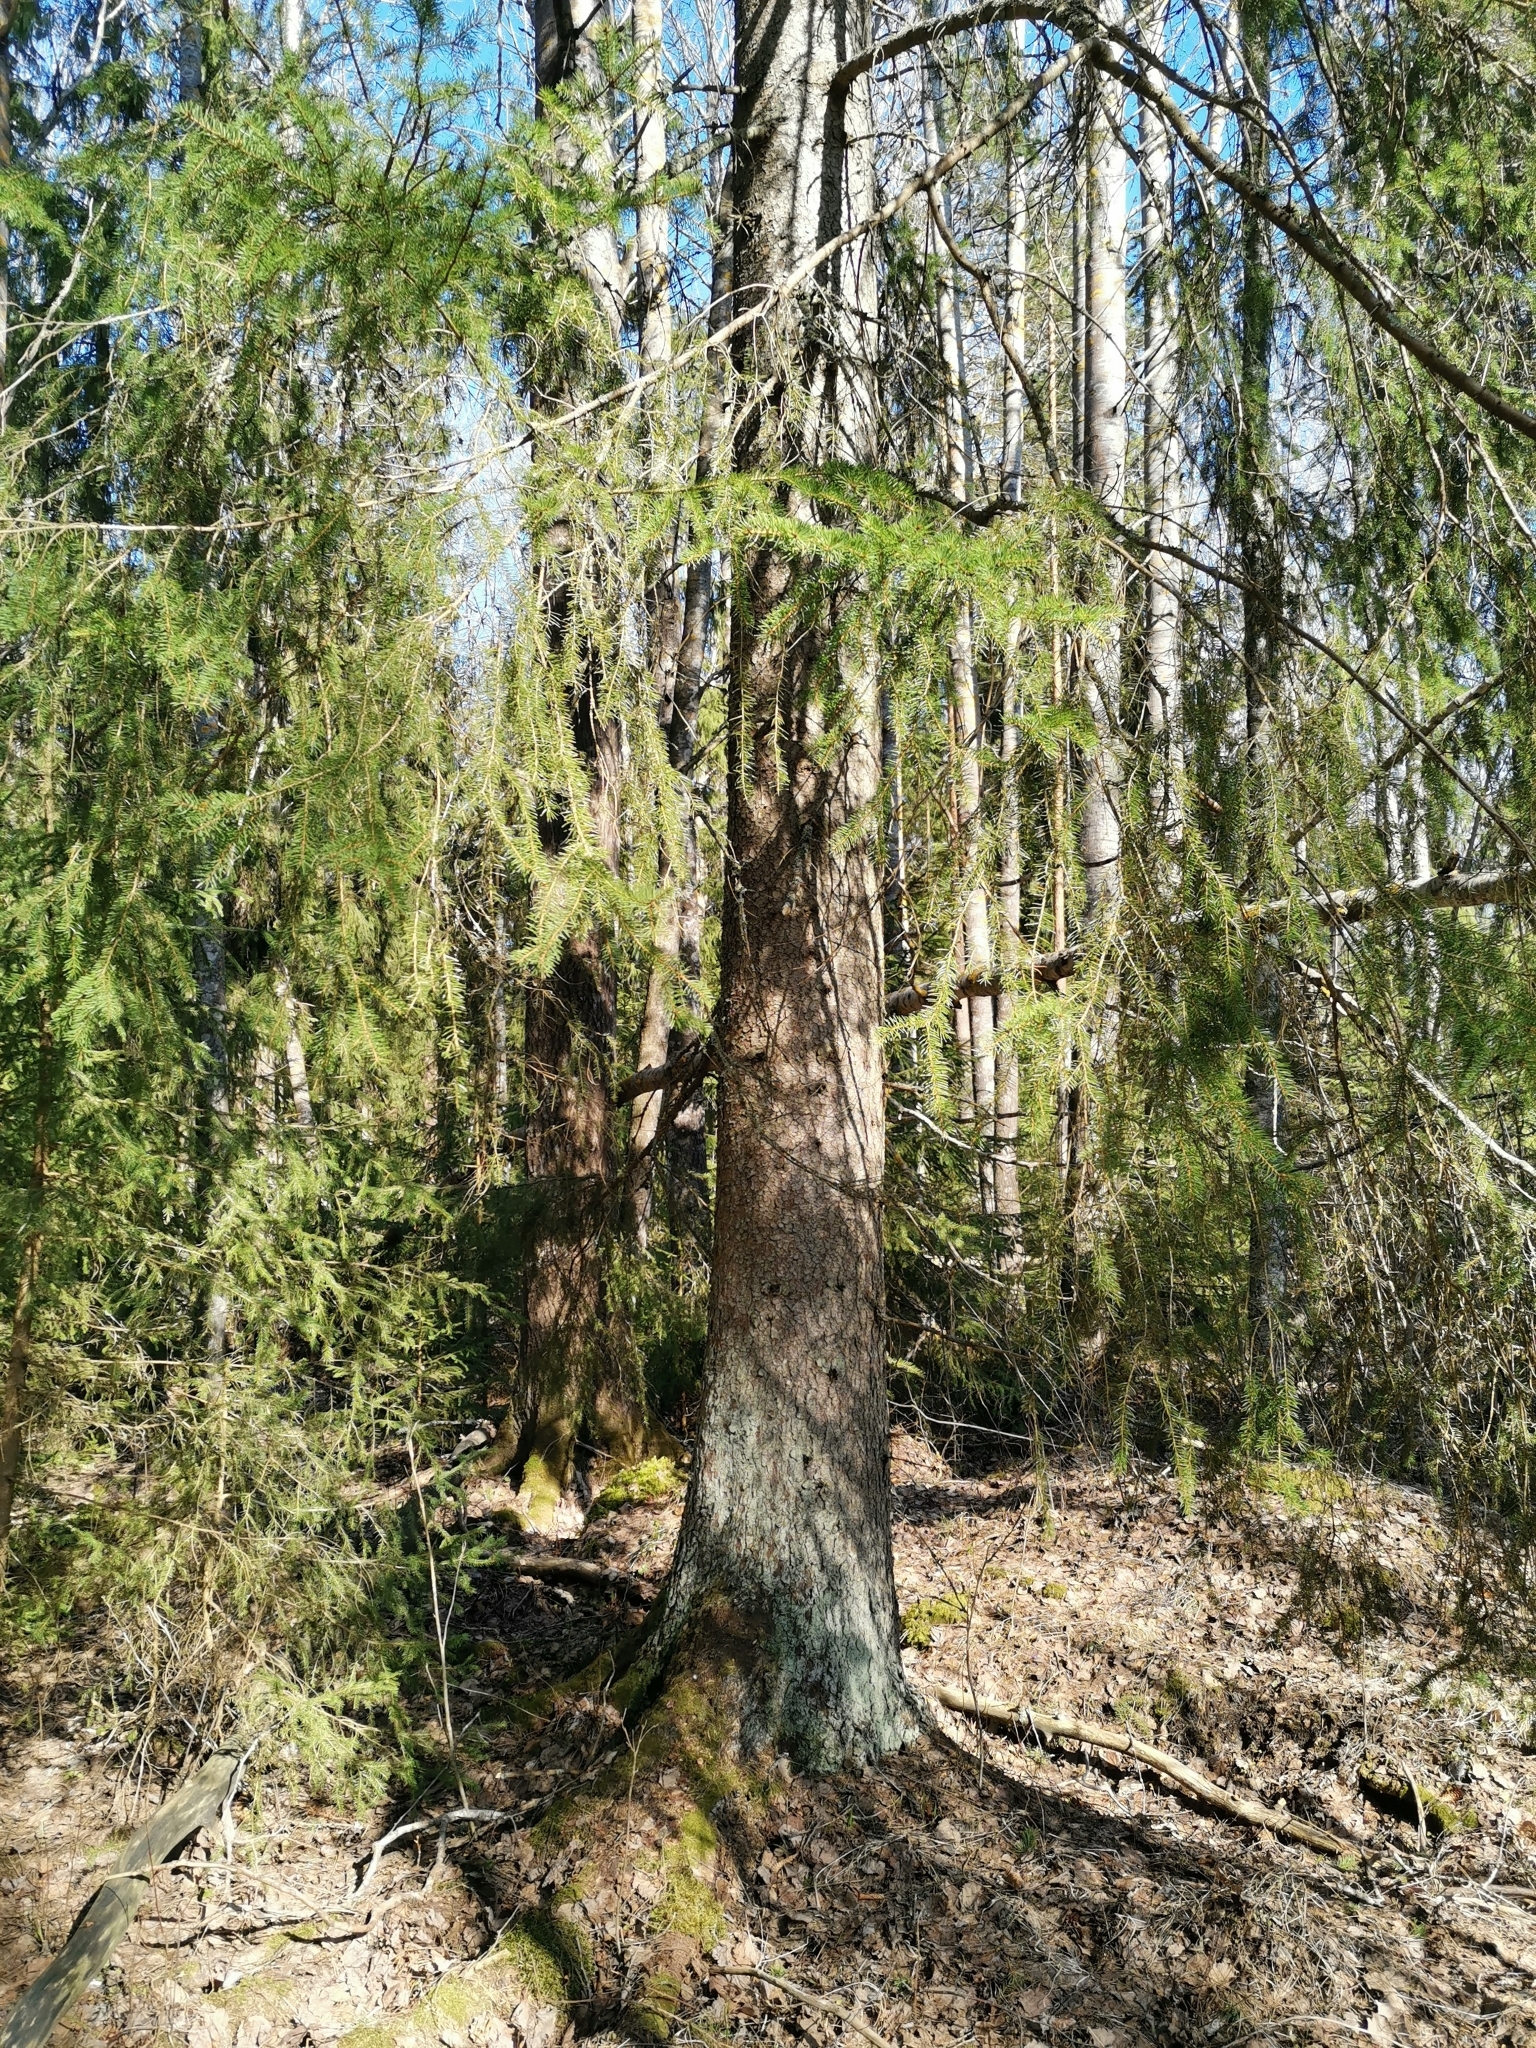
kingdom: Animalia
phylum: Chordata
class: Mammalia
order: Rodentia
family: Sciuridae
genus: Pteromys
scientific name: Pteromys volans
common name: Siberian flying squirrel
